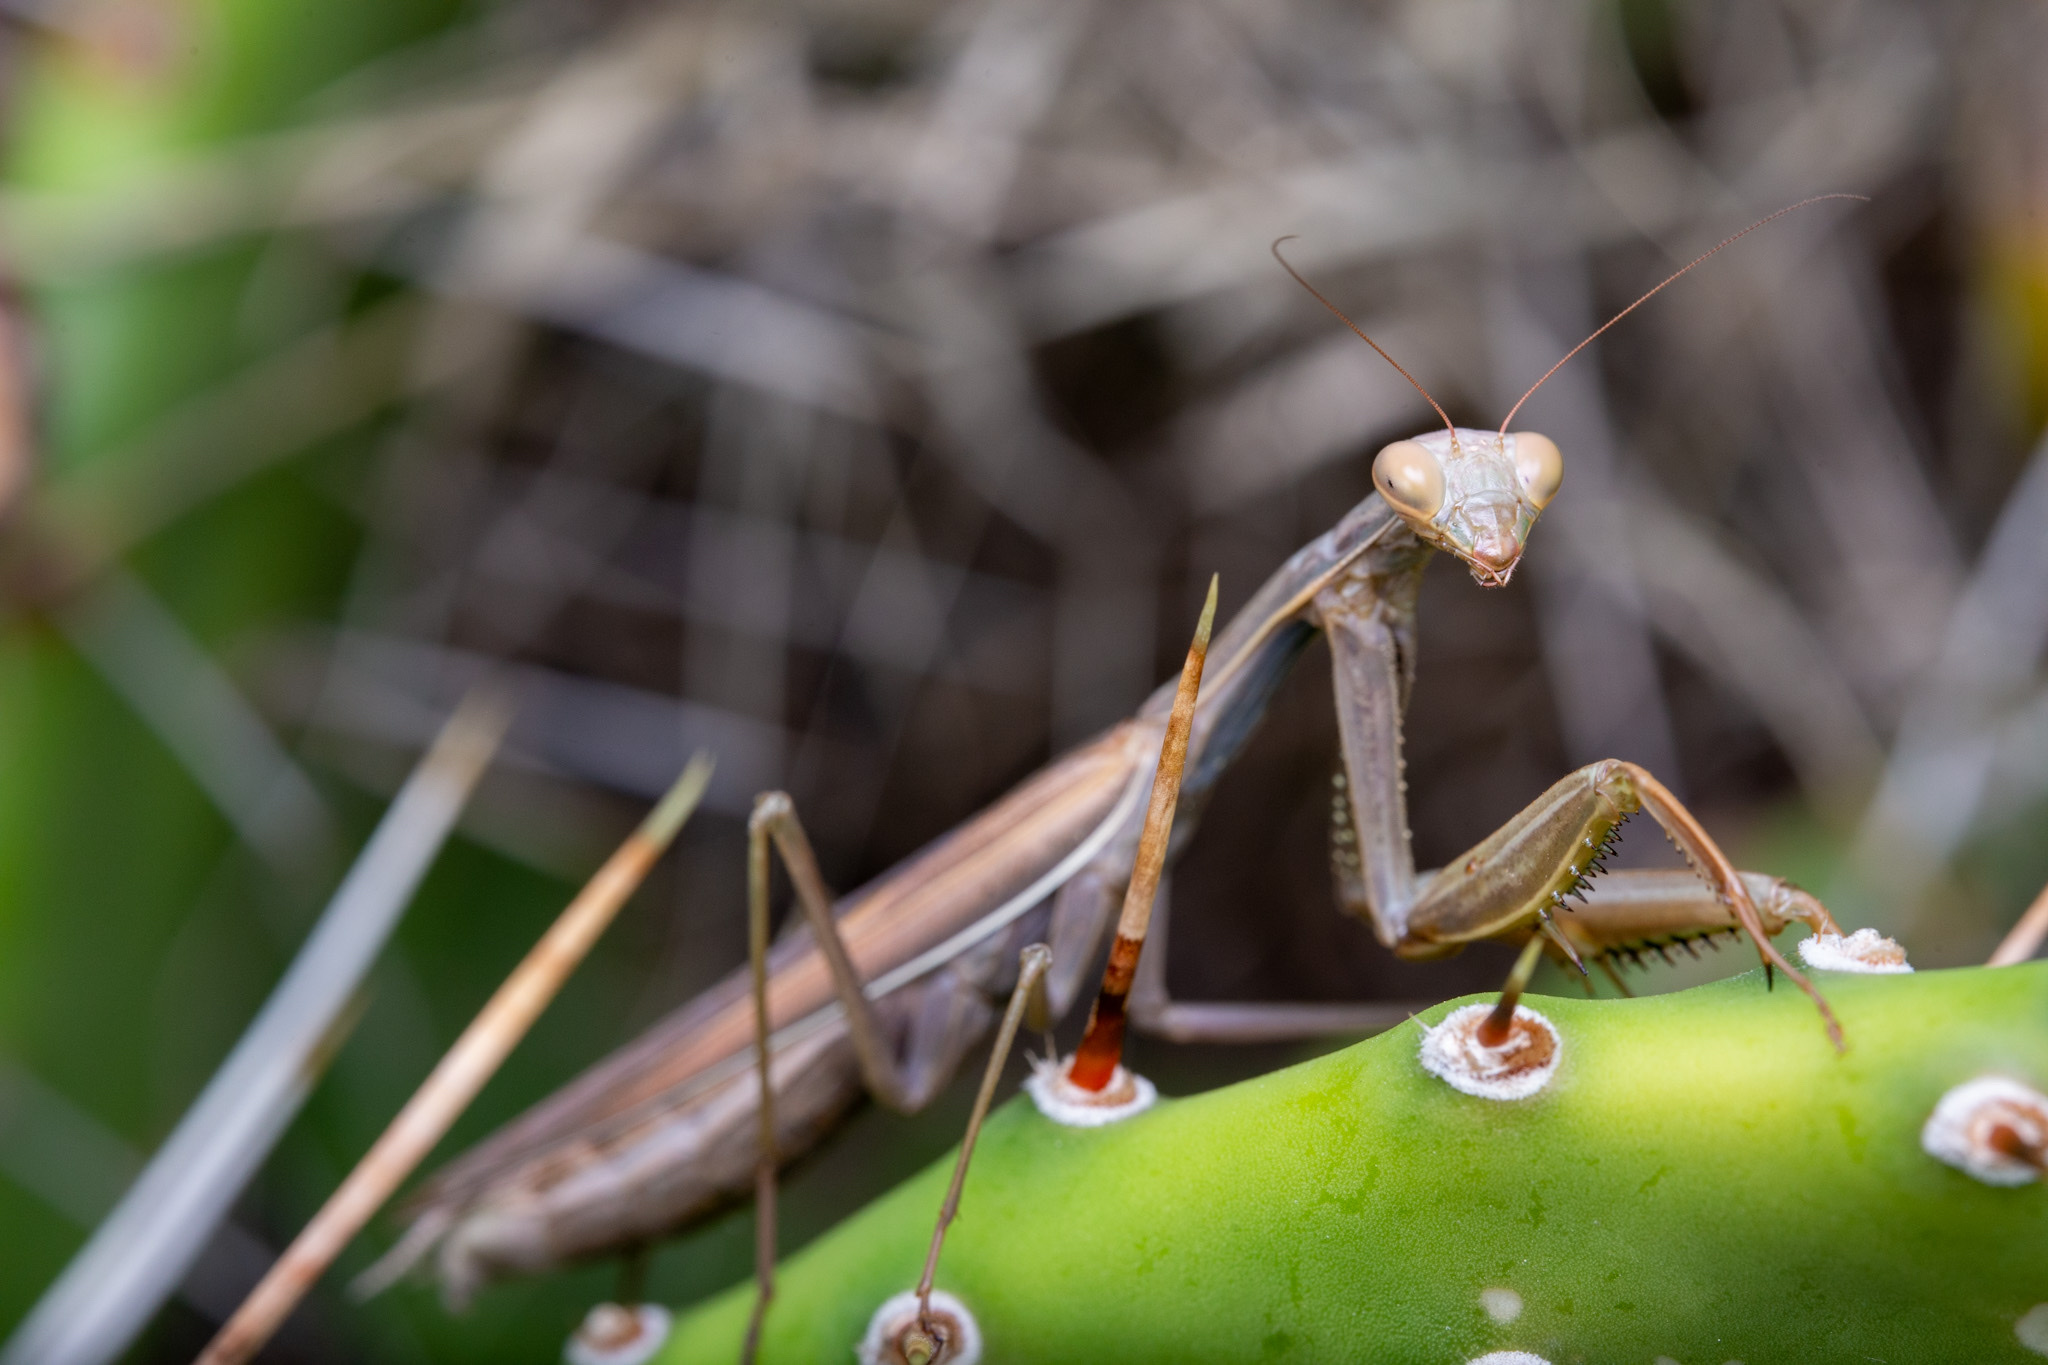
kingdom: Animalia
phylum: Arthropoda
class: Insecta
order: Mantodea
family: Mantidae
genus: Mantis
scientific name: Mantis religiosa
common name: Praying mantis
